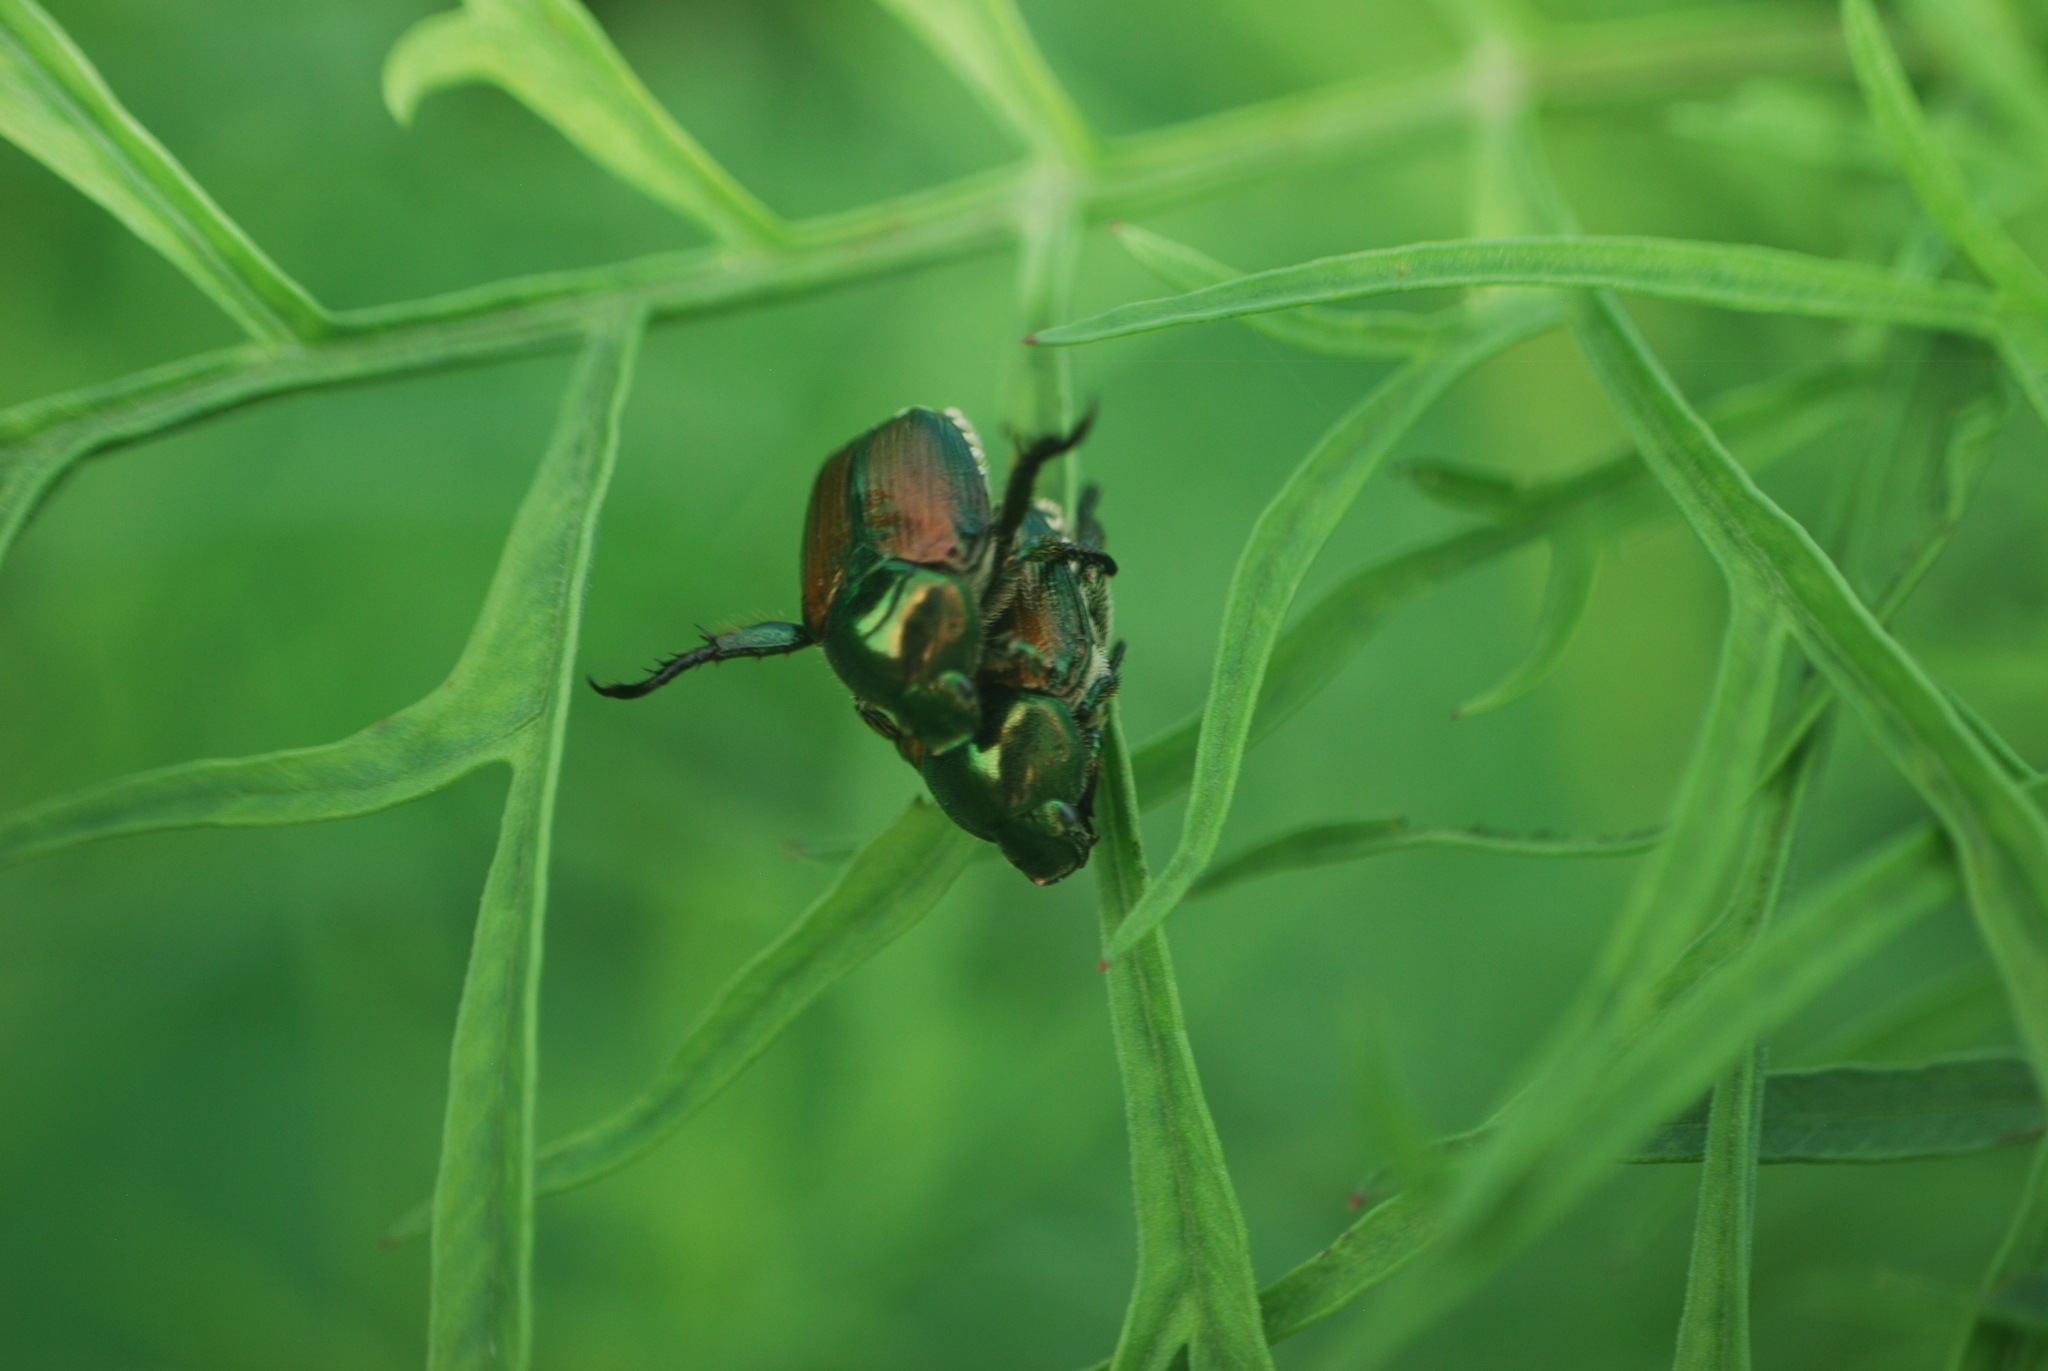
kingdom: Animalia
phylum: Arthropoda
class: Insecta
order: Coleoptera
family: Scarabaeidae
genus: Popillia
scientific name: Popillia japonica
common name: Japanese beetle
